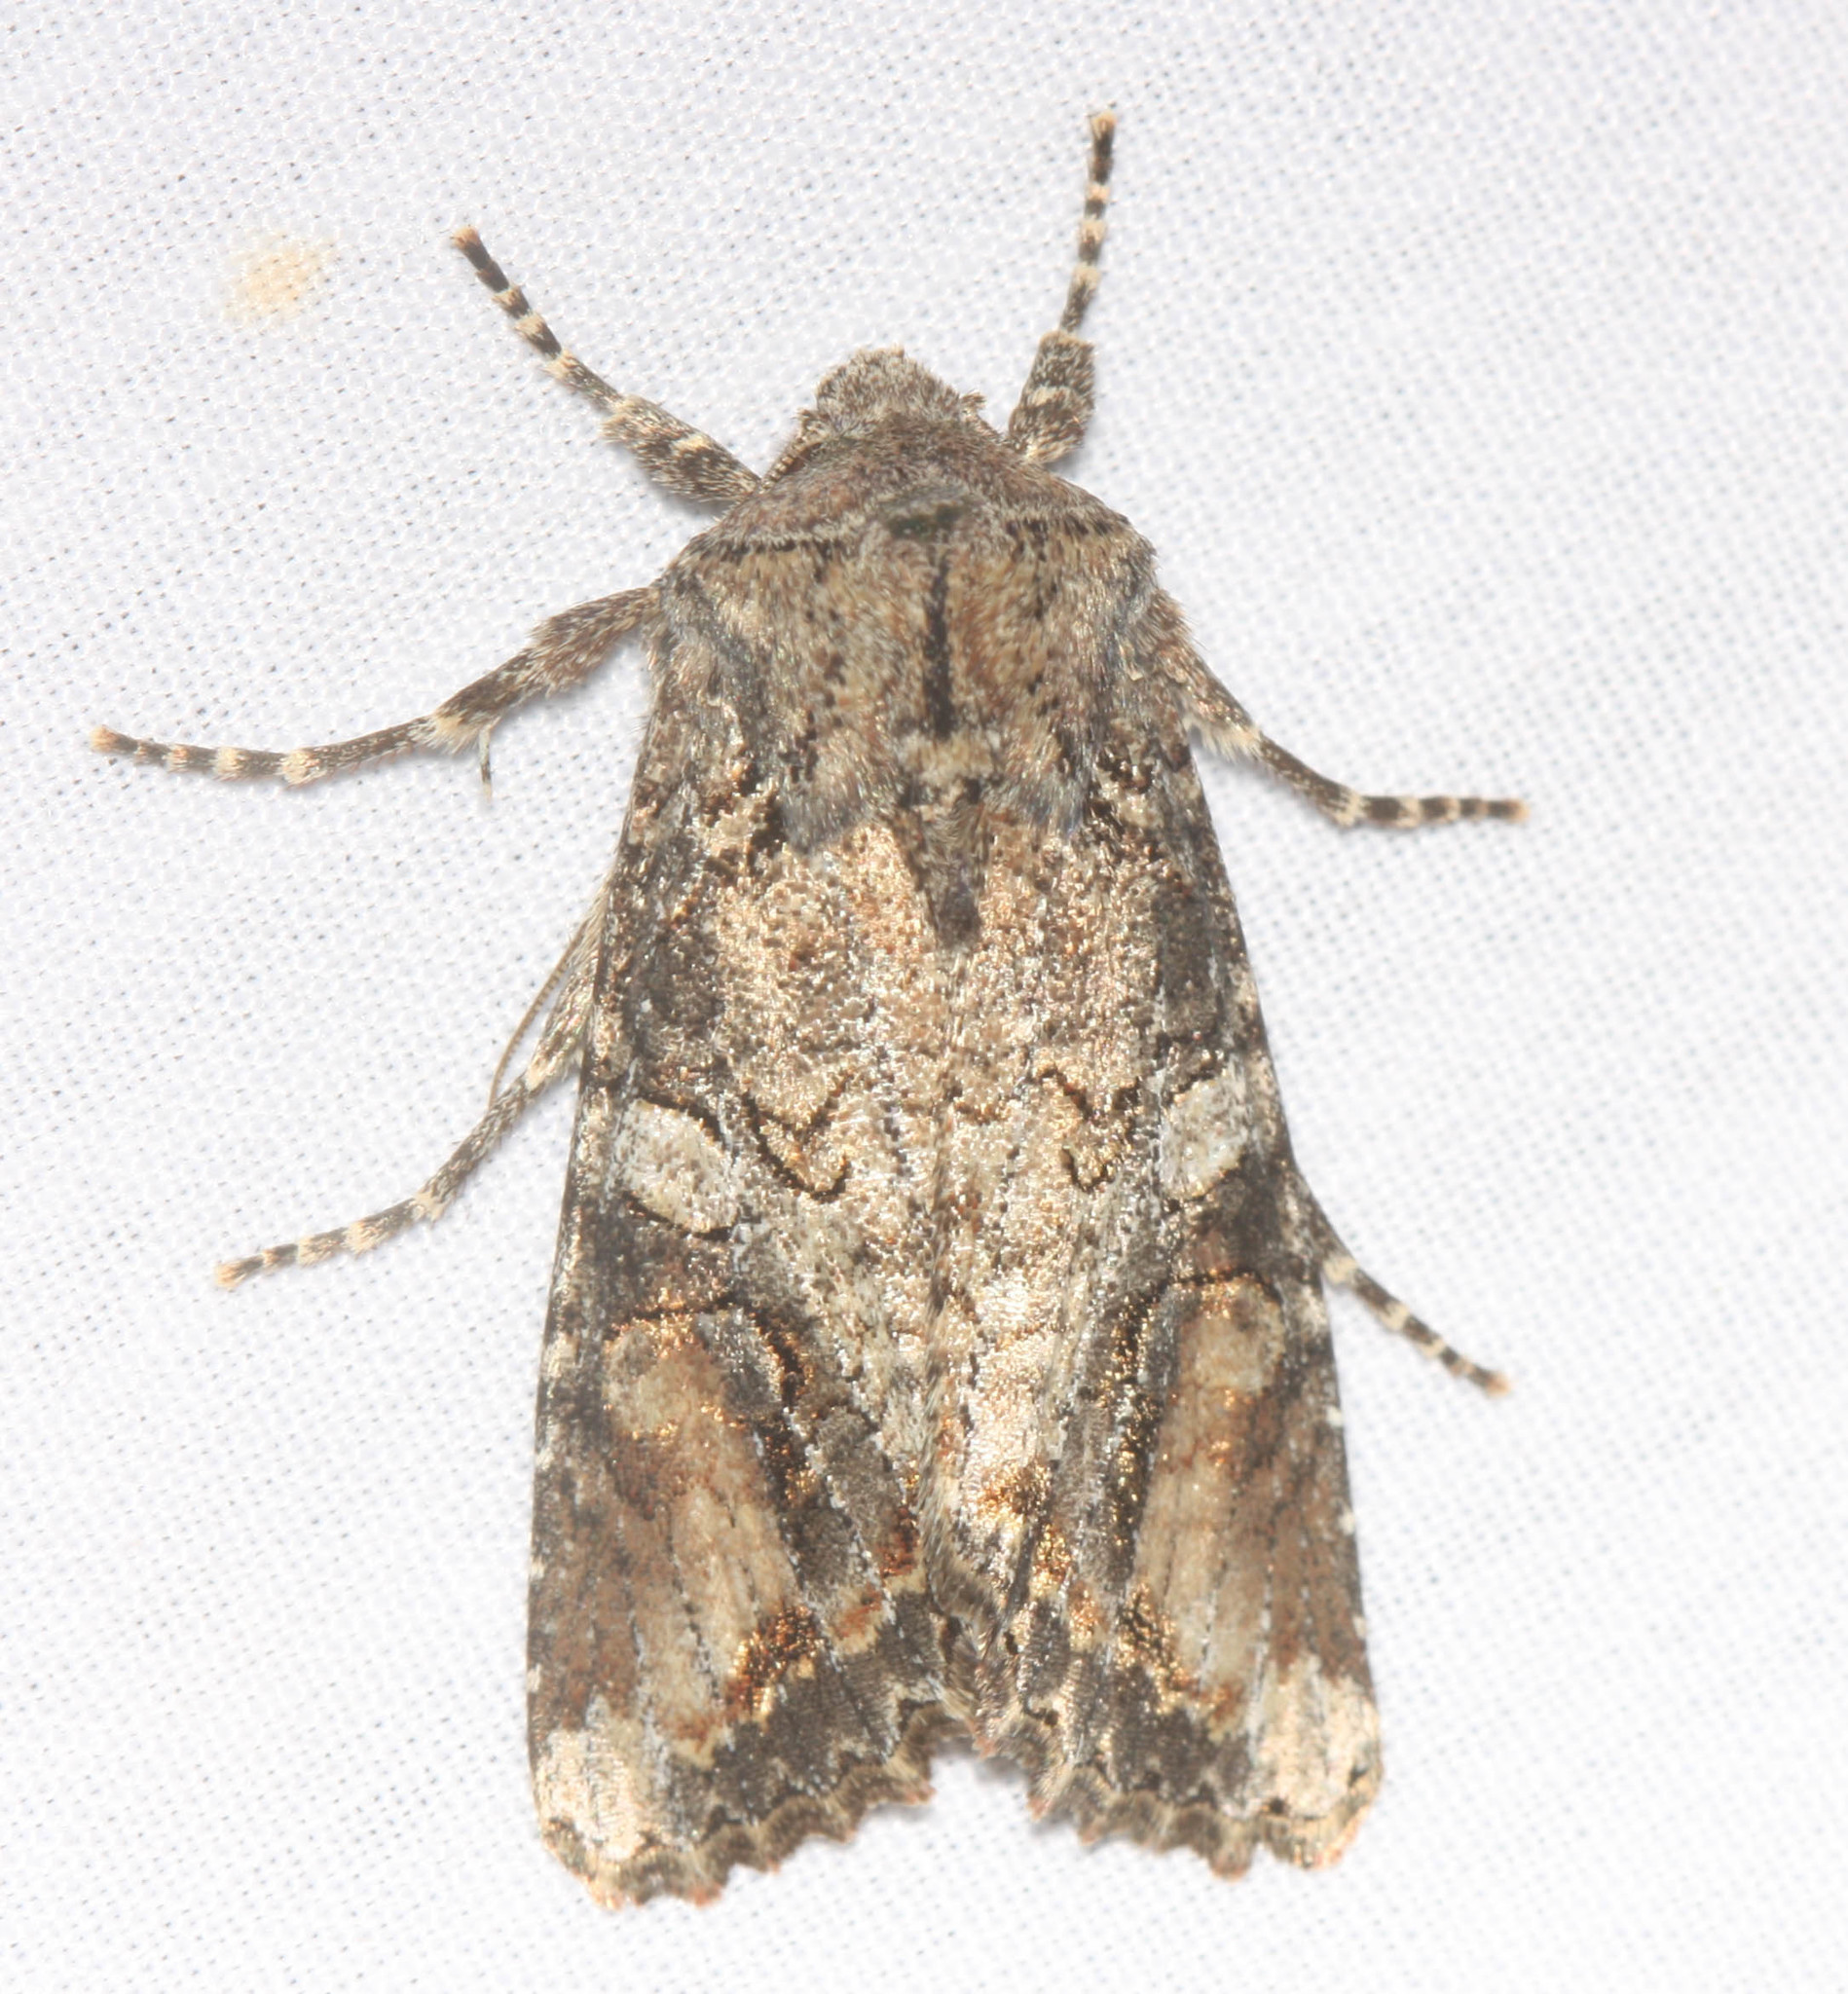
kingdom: Animalia
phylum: Arthropoda
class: Insecta
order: Lepidoptera
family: Noctuidae
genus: Egira
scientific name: Egira perlubens
